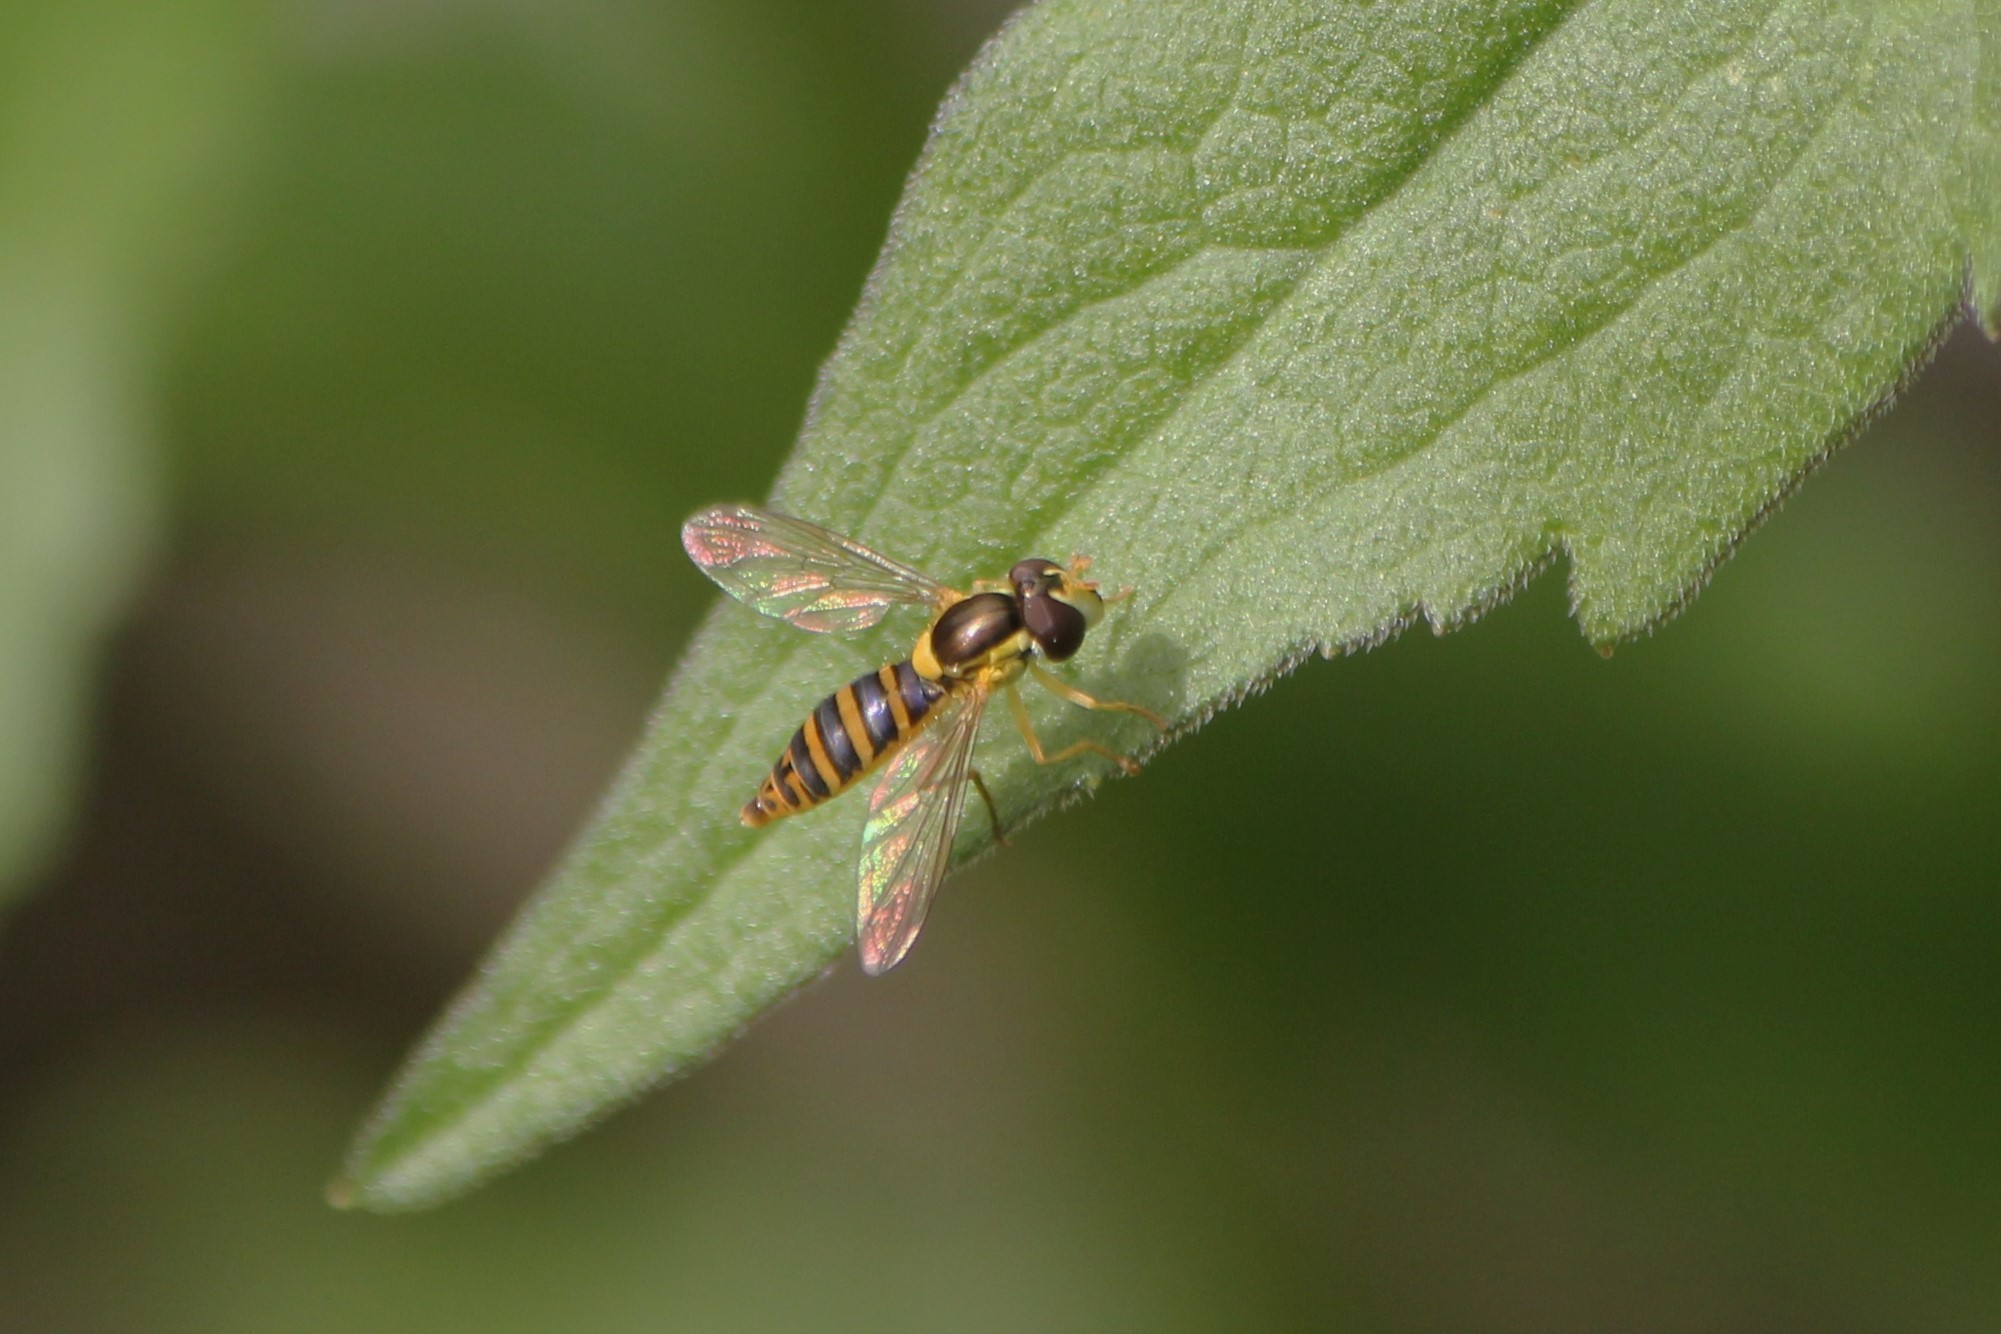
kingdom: Animalia
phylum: Arthropoda
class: Insecta
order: Diptera
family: Syrphidae
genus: Sphaerophoria
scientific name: Sphaerophoria
